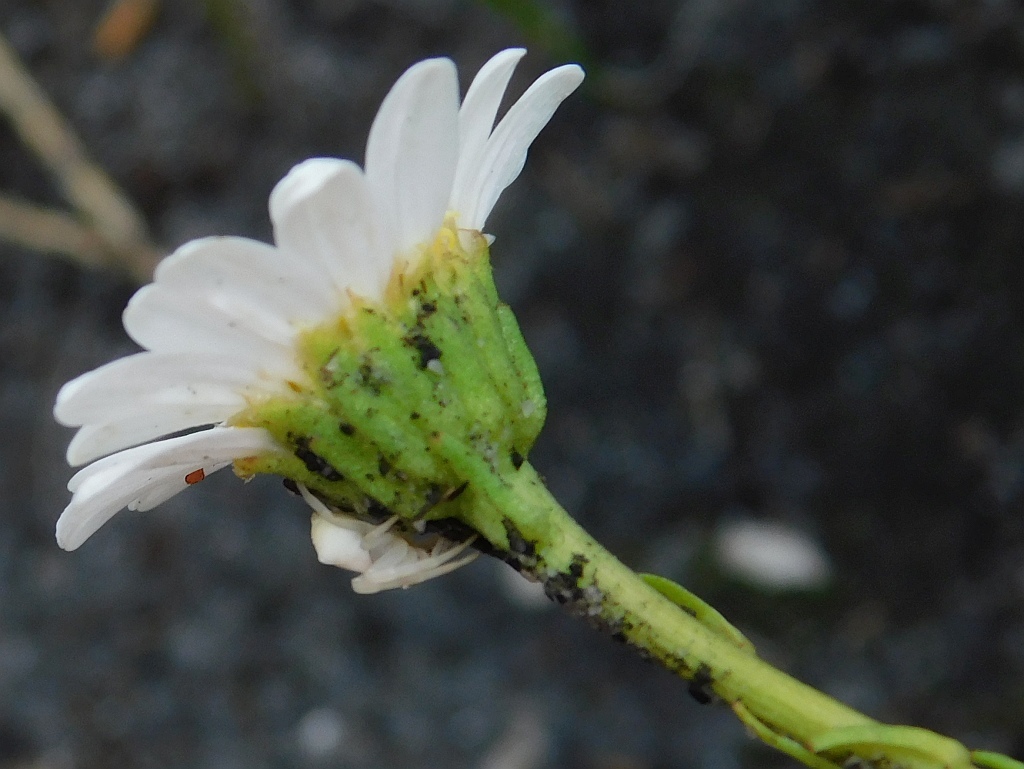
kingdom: Plantae
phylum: Tracheophyta
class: Magnoliopsida
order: Asterales
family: Asteraceae
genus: Osmitopsis
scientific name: Osmitopsis nana
